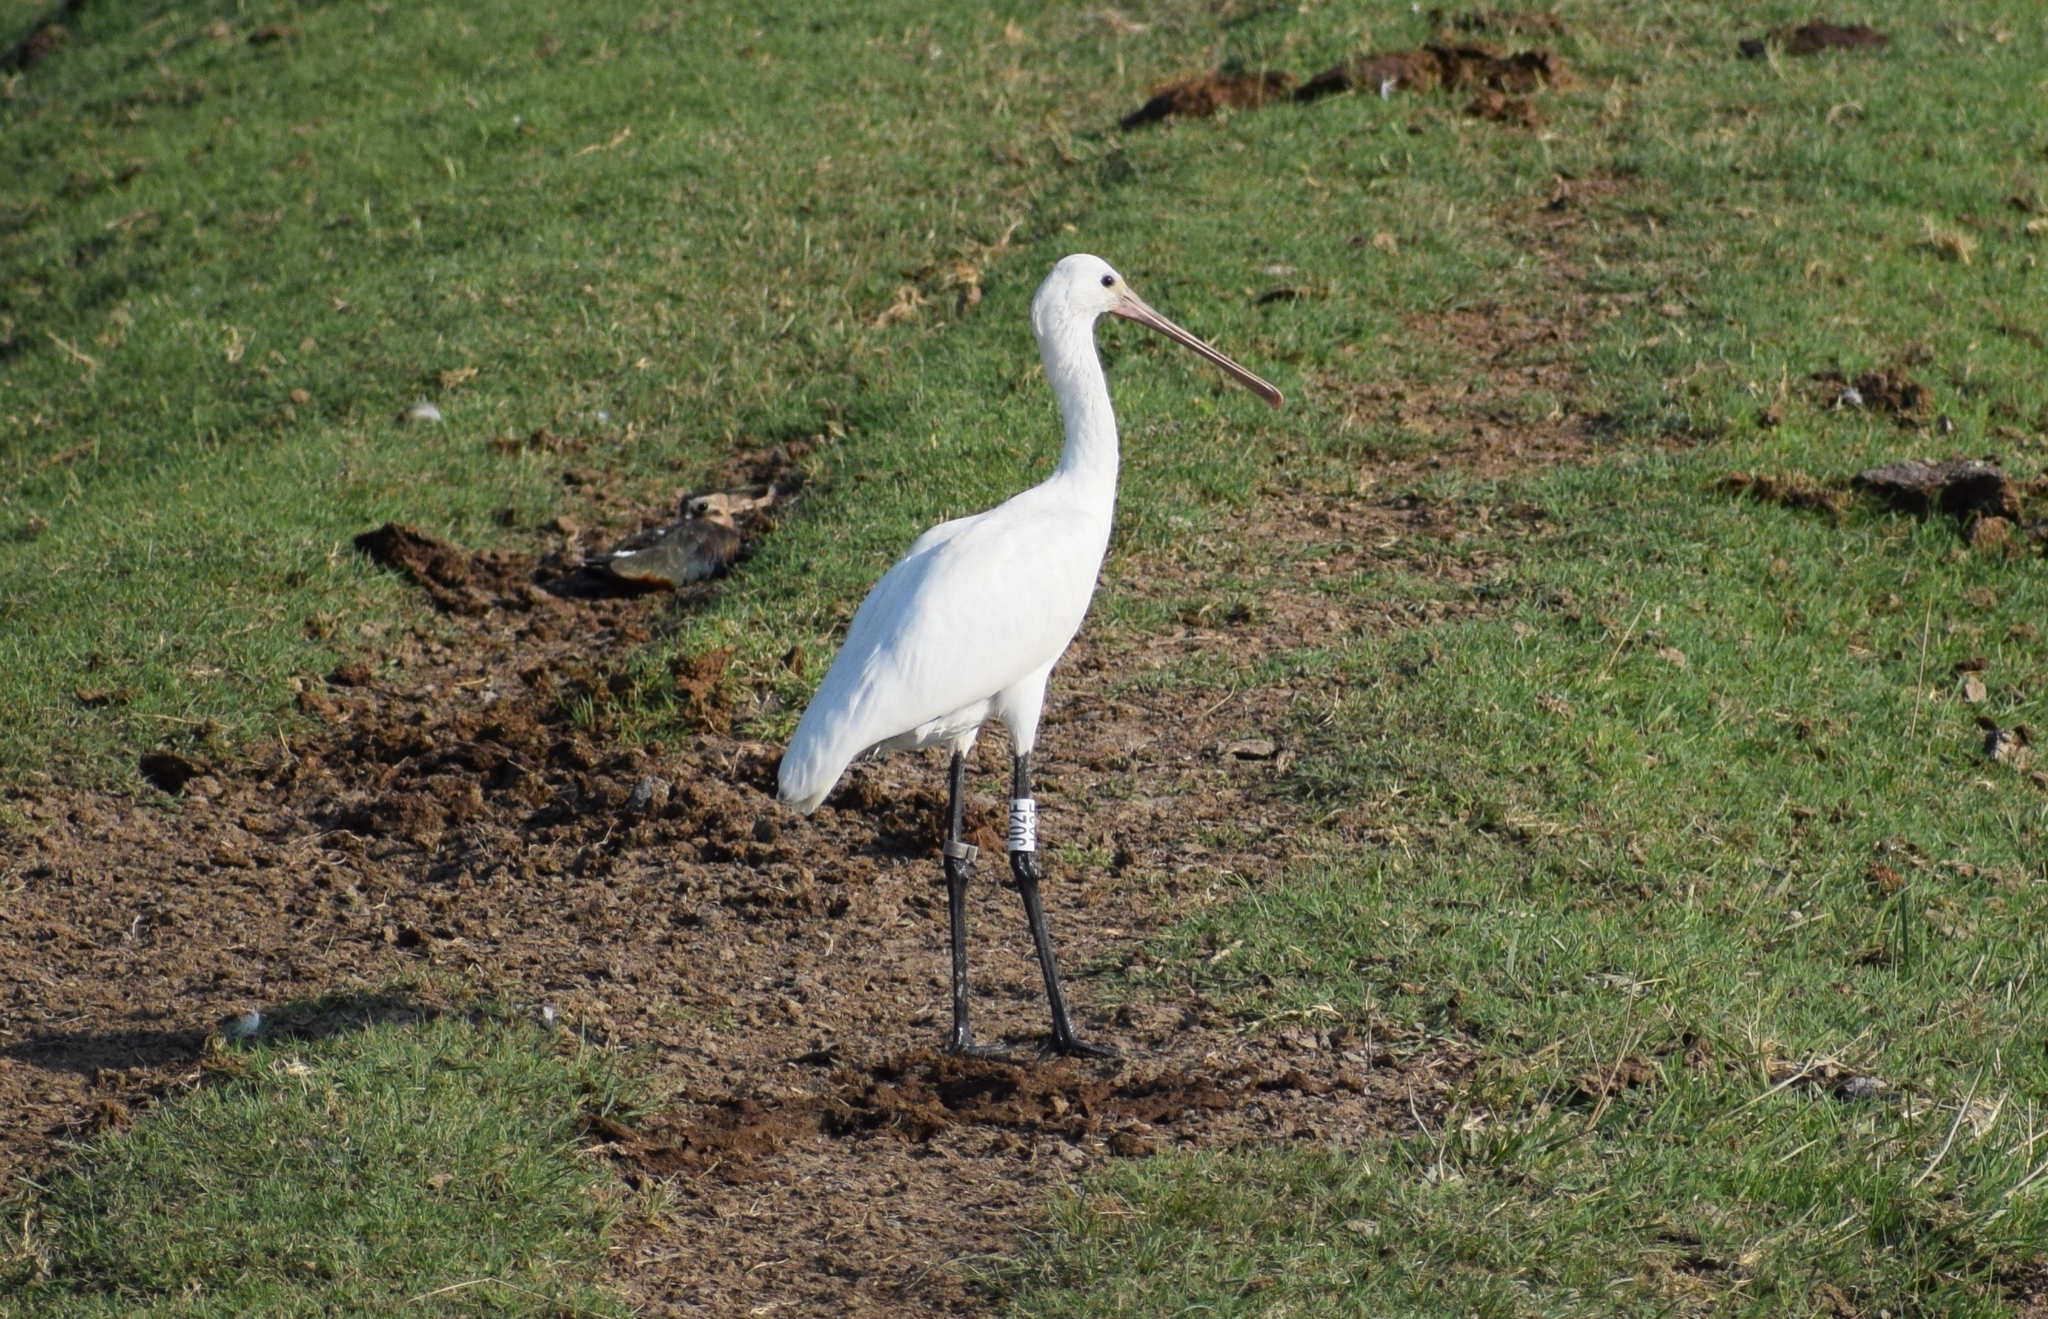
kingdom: Animalia
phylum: Chordata
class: Aves
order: Pelecaniformes
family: Threskiornithidae
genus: Platalea
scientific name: Platalea leucorodia
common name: Eurasian spoonbill
